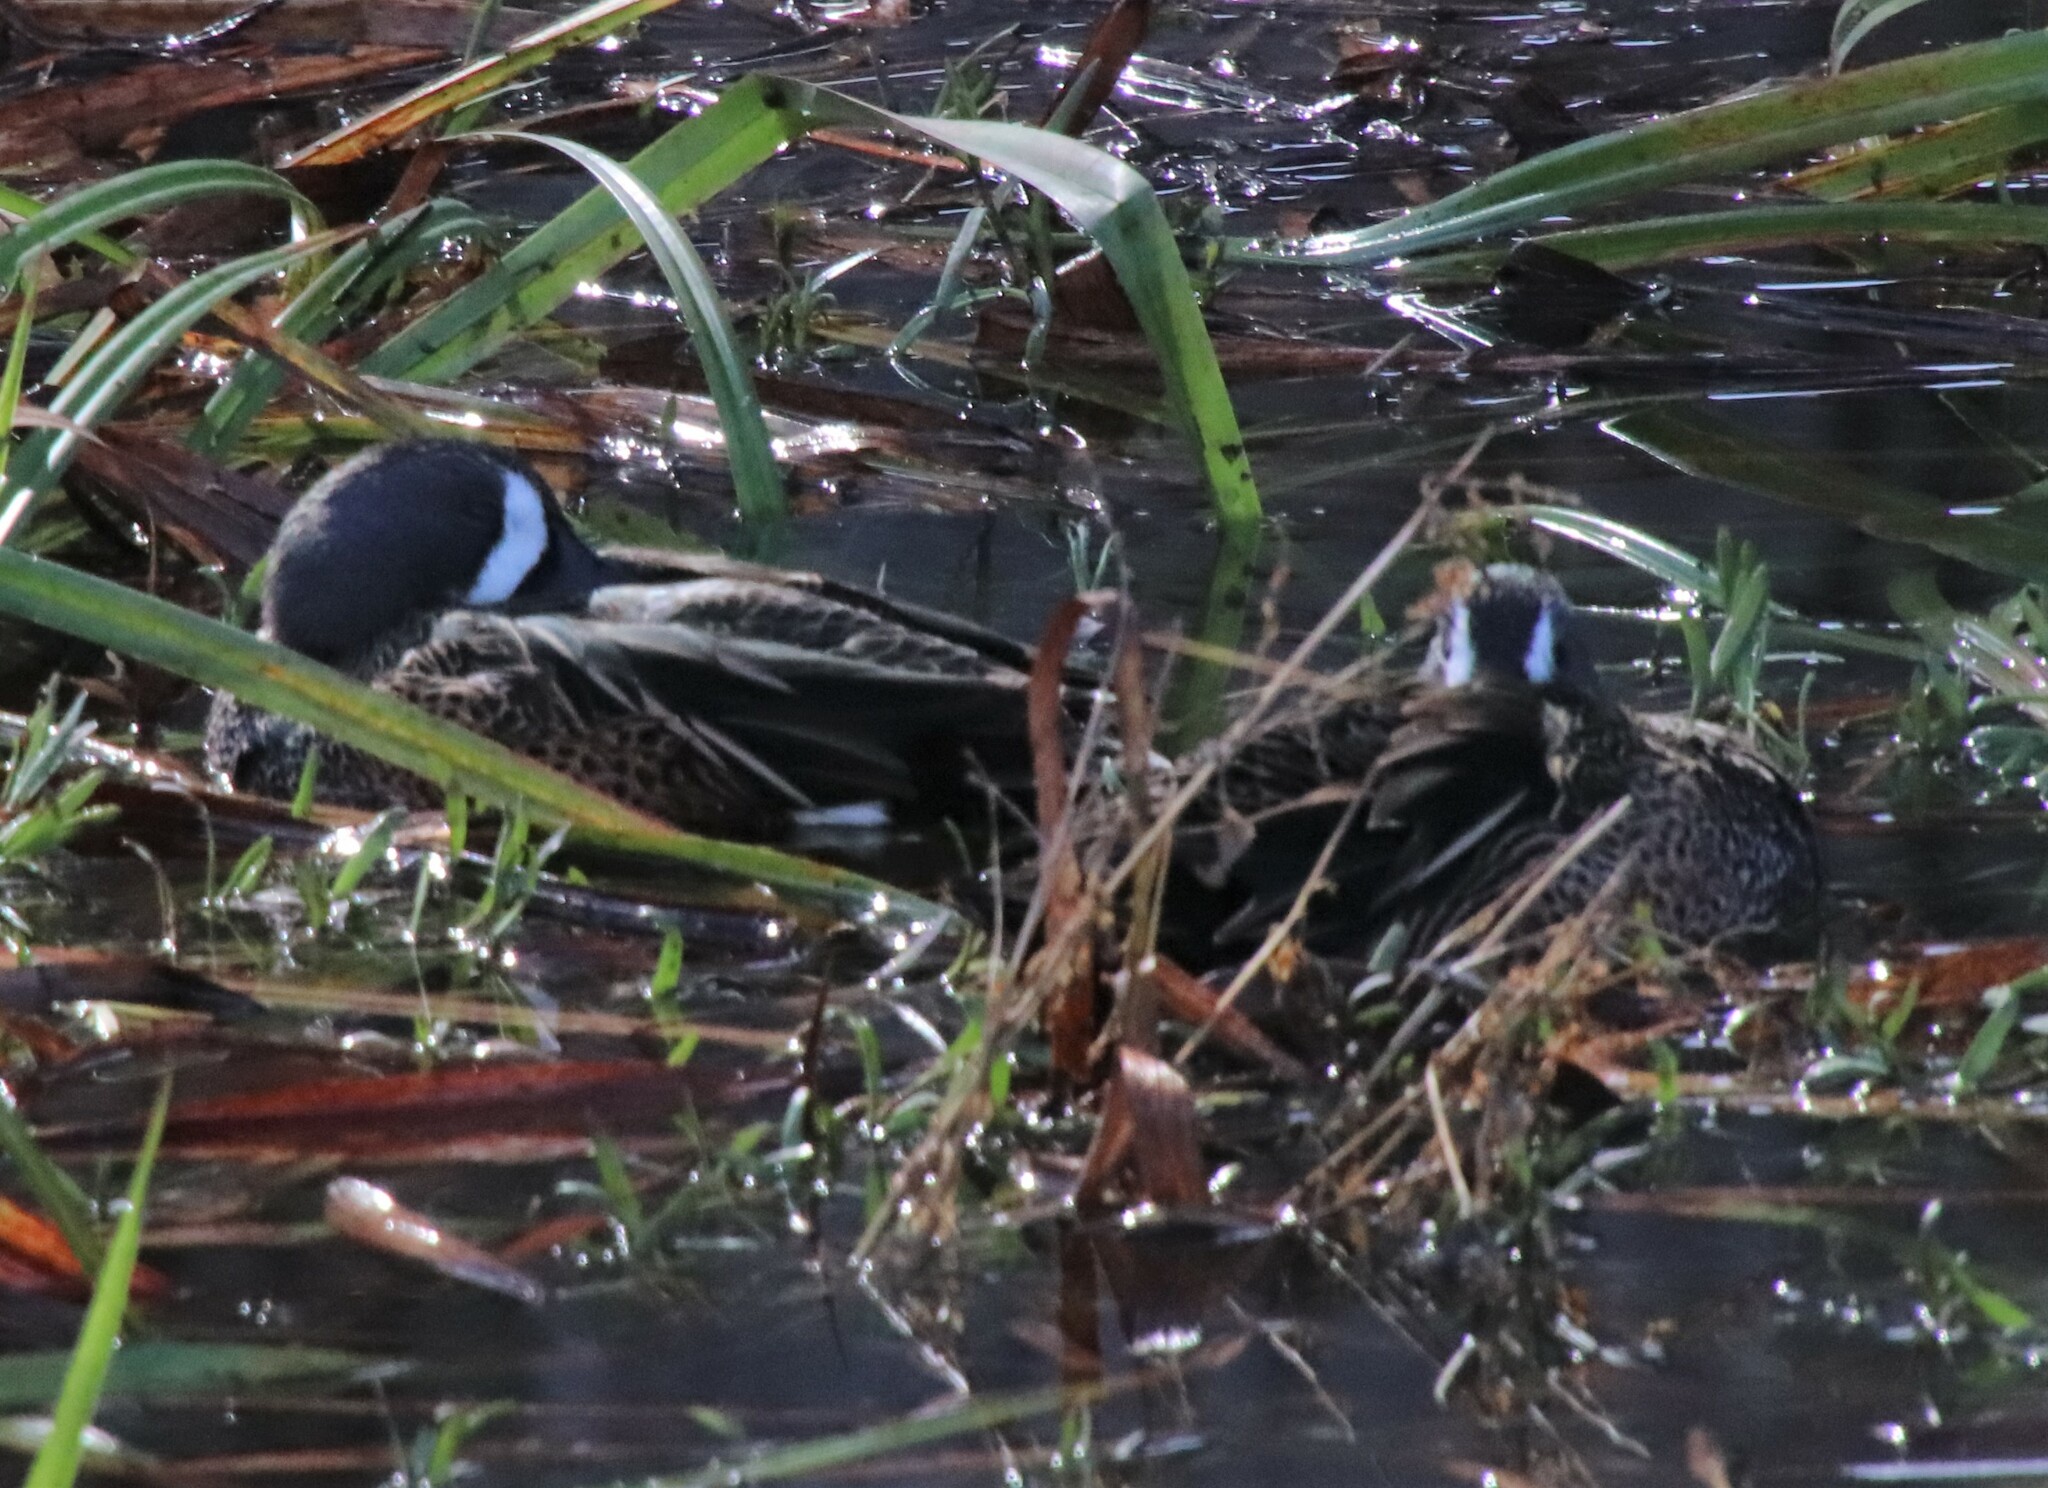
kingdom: Animalia
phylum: Chordata
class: Aves
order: Anseriformes
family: Anatidae
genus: Spatula
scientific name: Spatula discors
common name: Blue-winged teal
